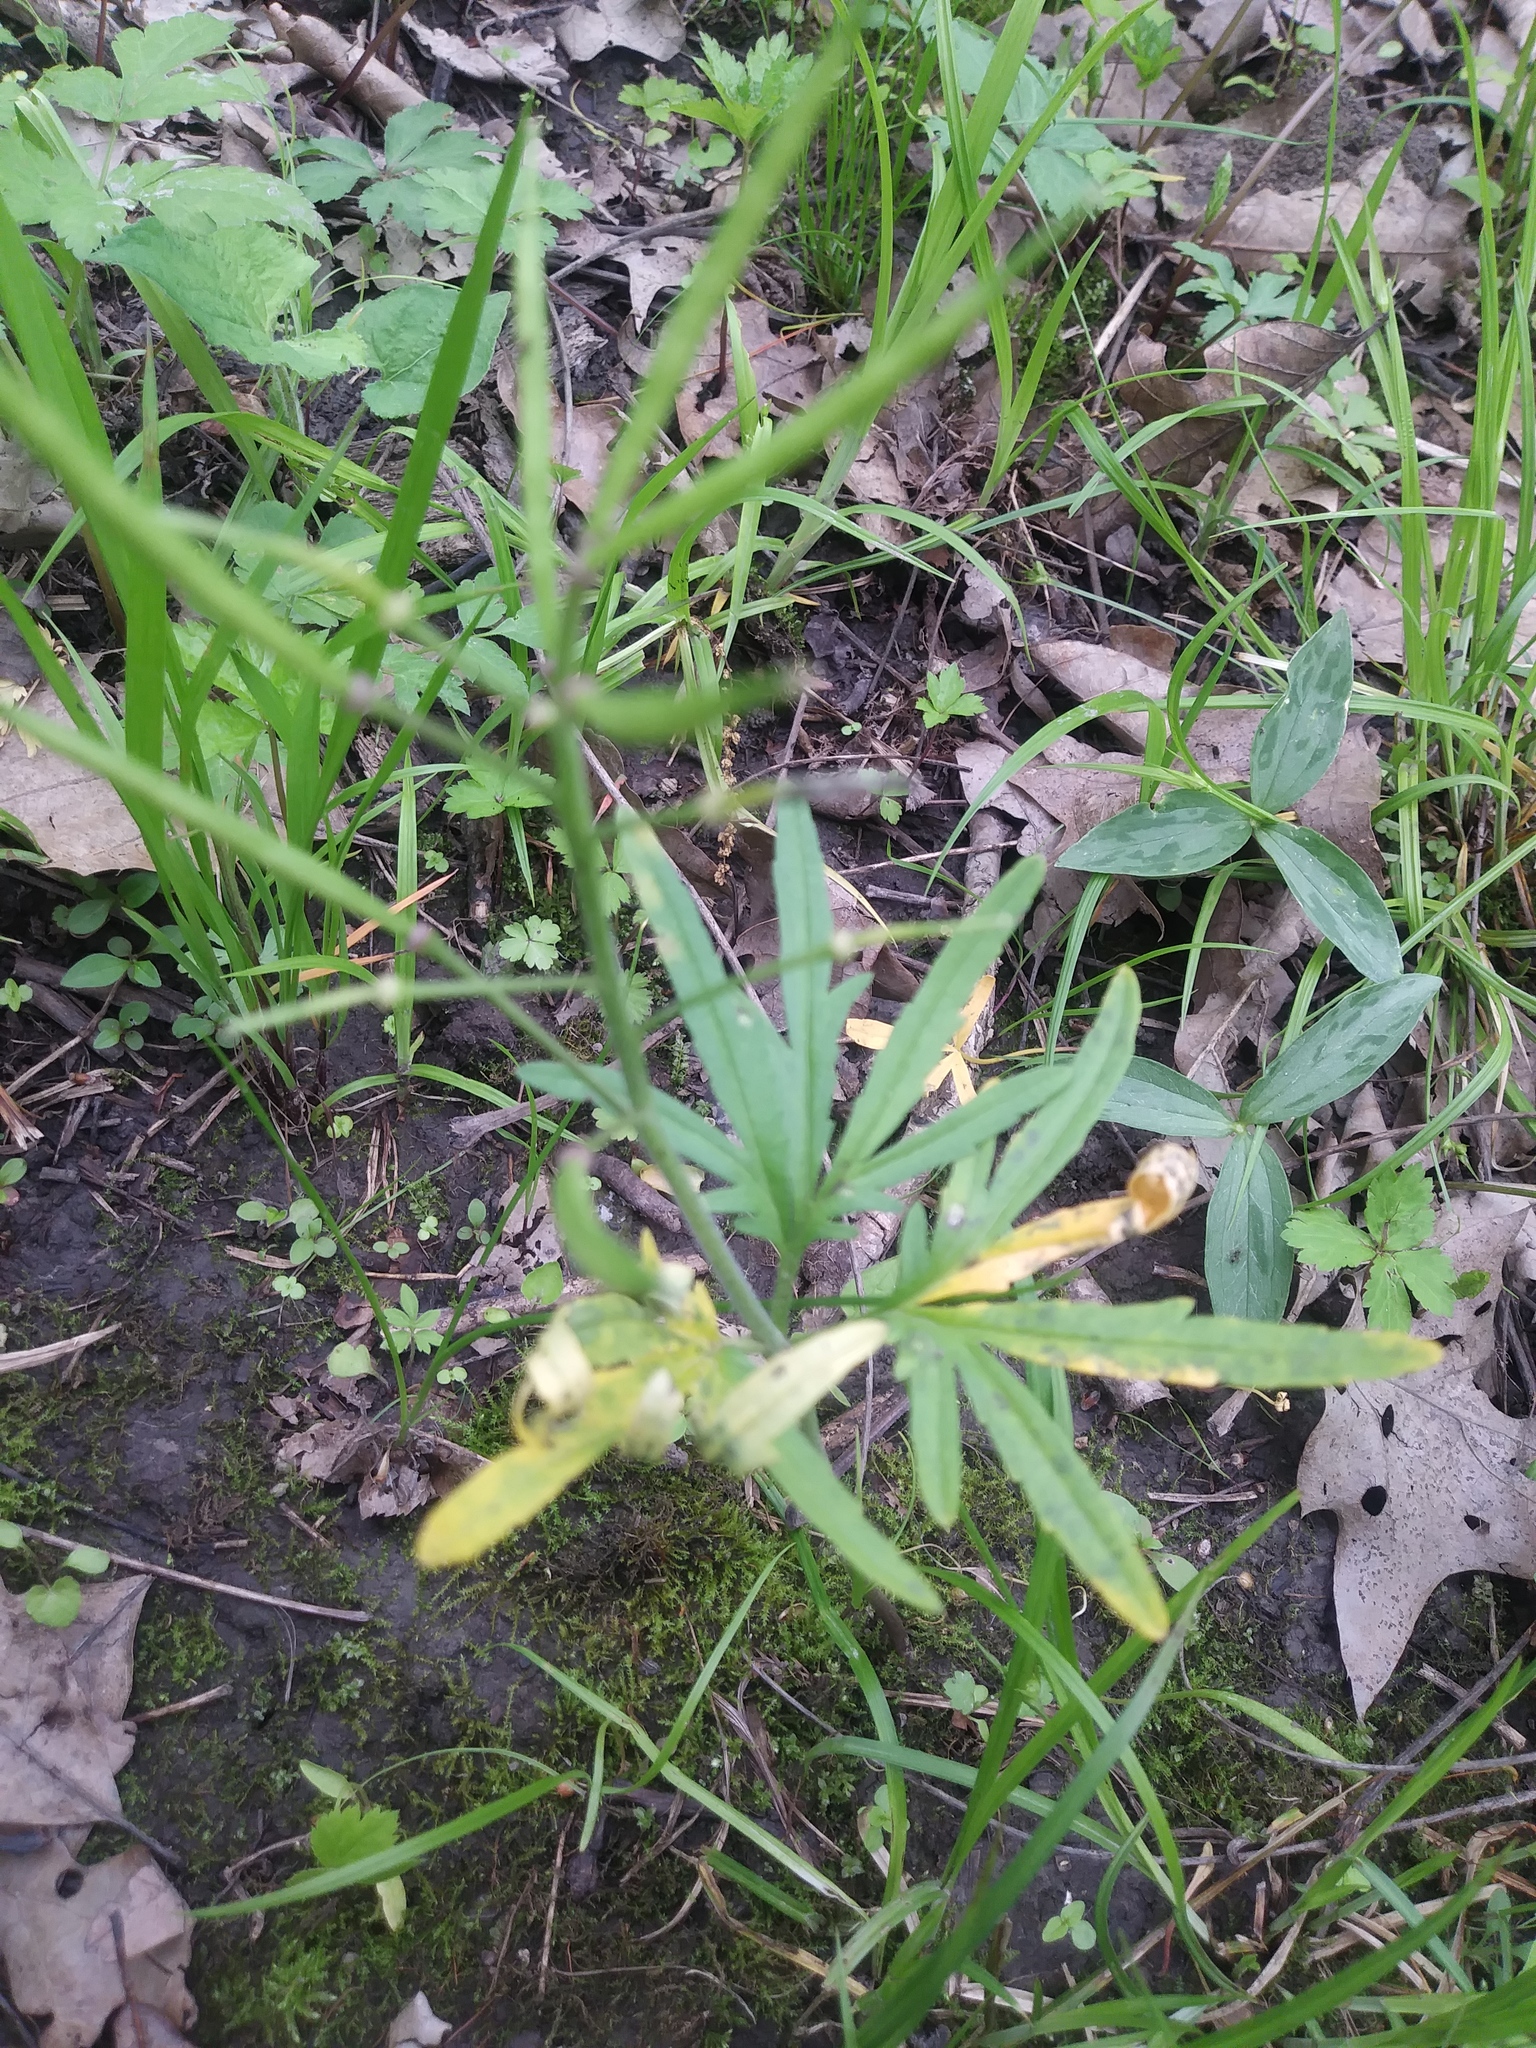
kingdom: Plantae
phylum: Tracheophyta
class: Magnoliopsida
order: Brassicales
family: Brassicaceae
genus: Cardamine
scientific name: Cardamine concatenata
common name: Cut-leaf toothcup
